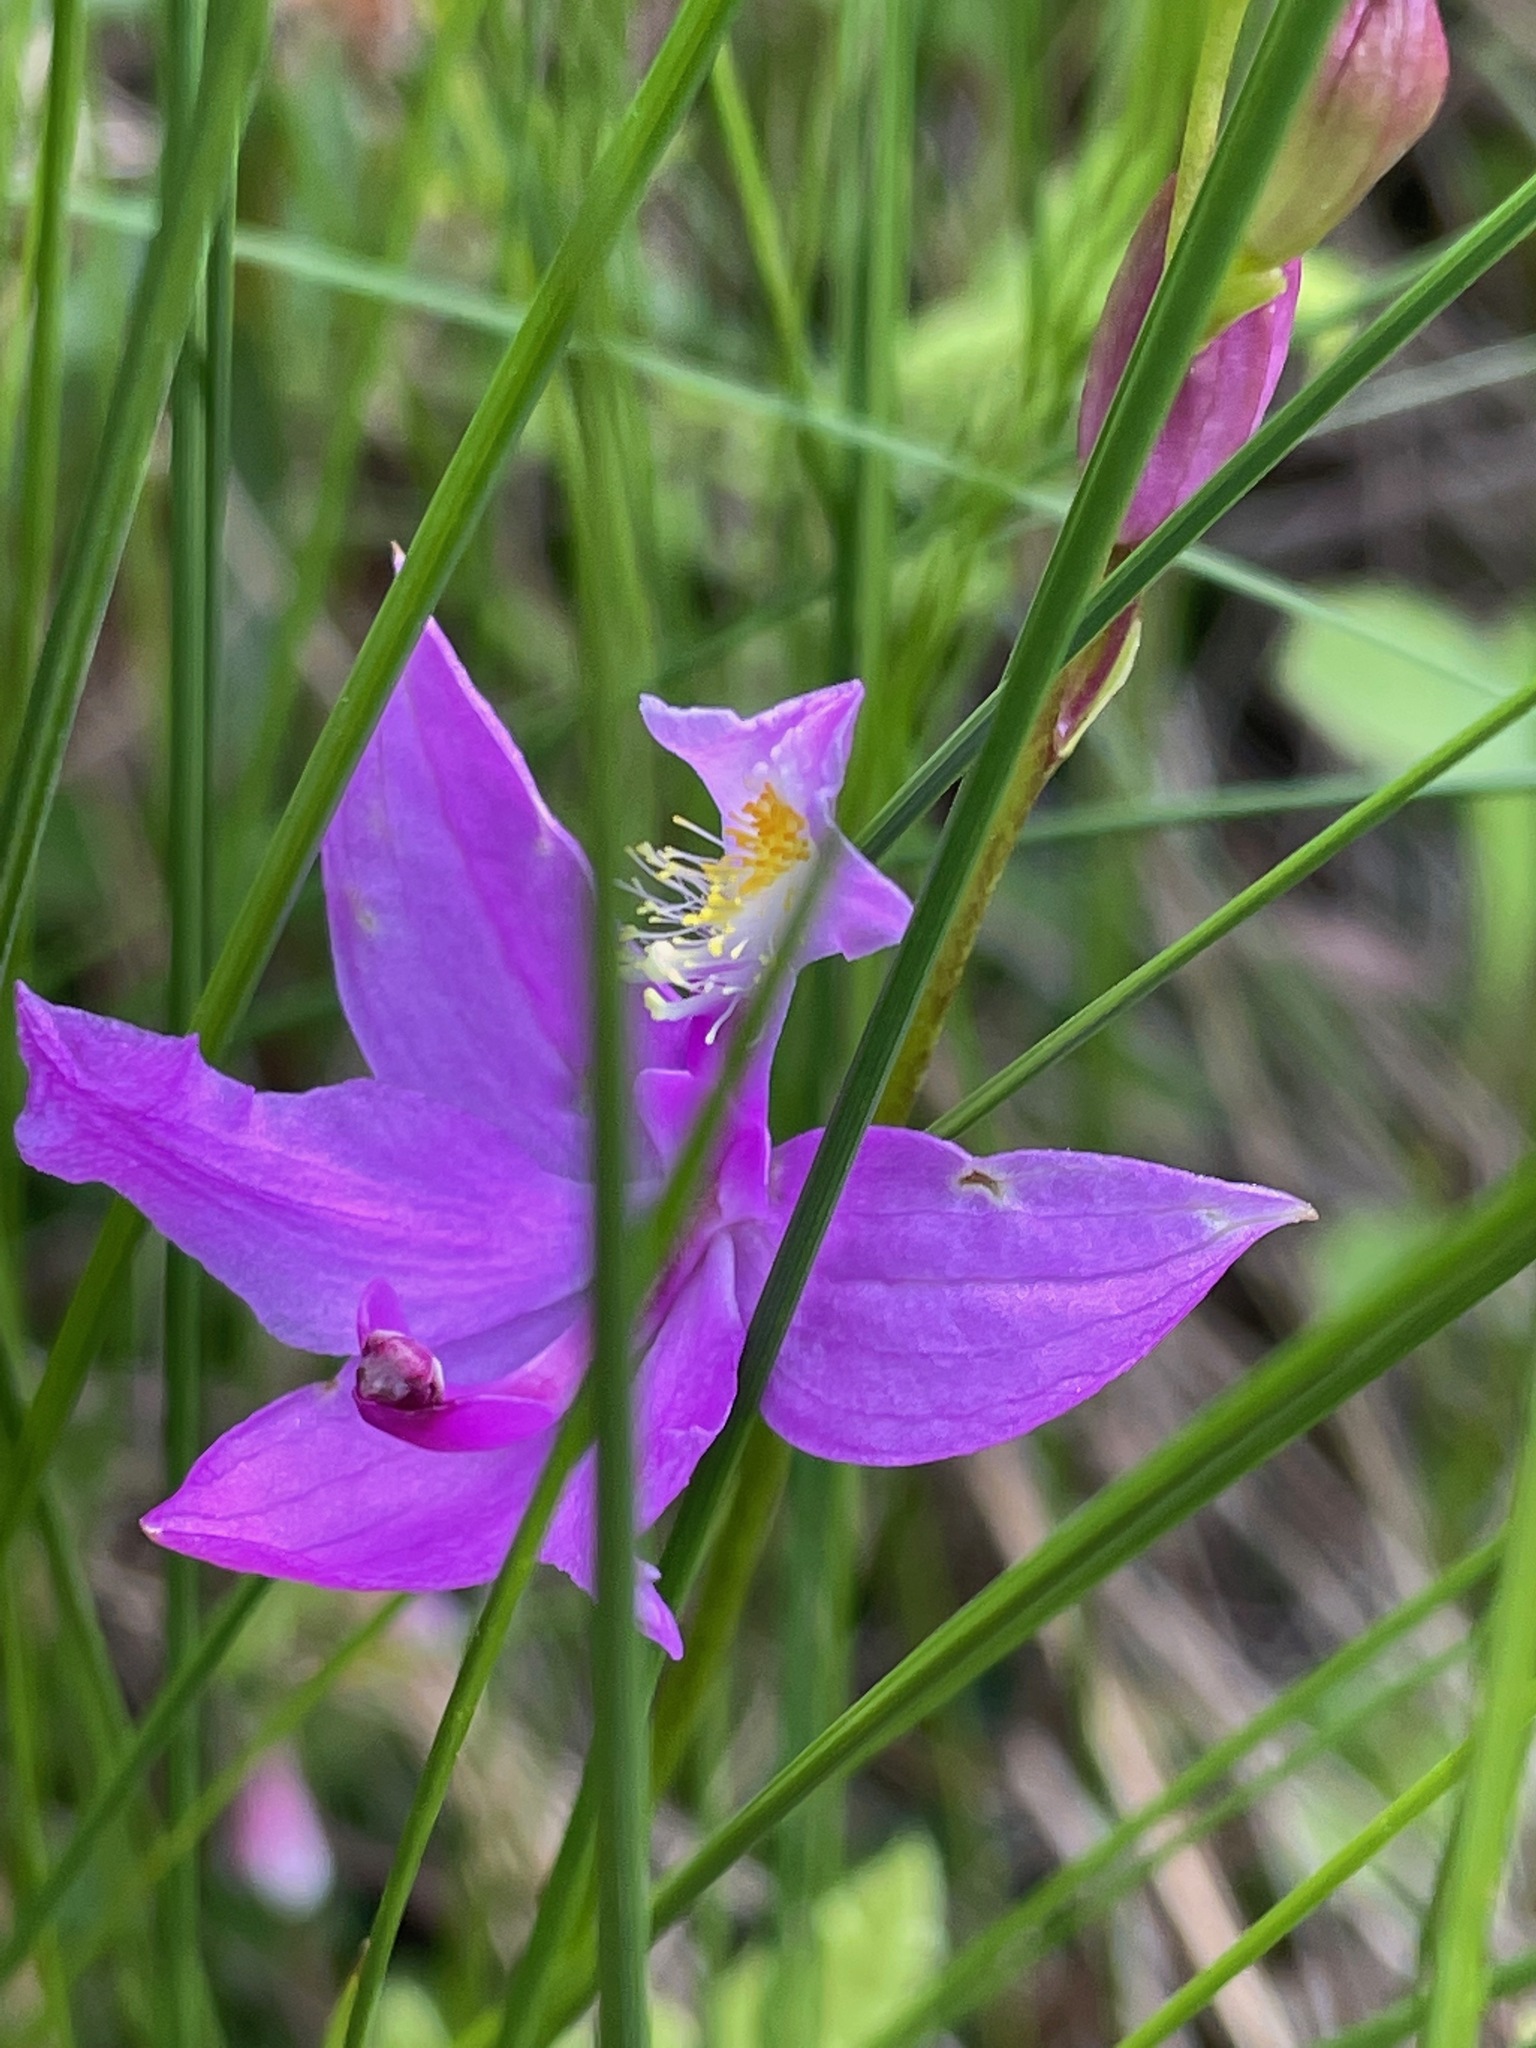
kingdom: Plantae
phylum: Tracheophyta
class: Liliopsida
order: Asparagales
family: Orchidaceae
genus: Calopogon
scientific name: Calopogon tuberosus
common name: Grass-pink
